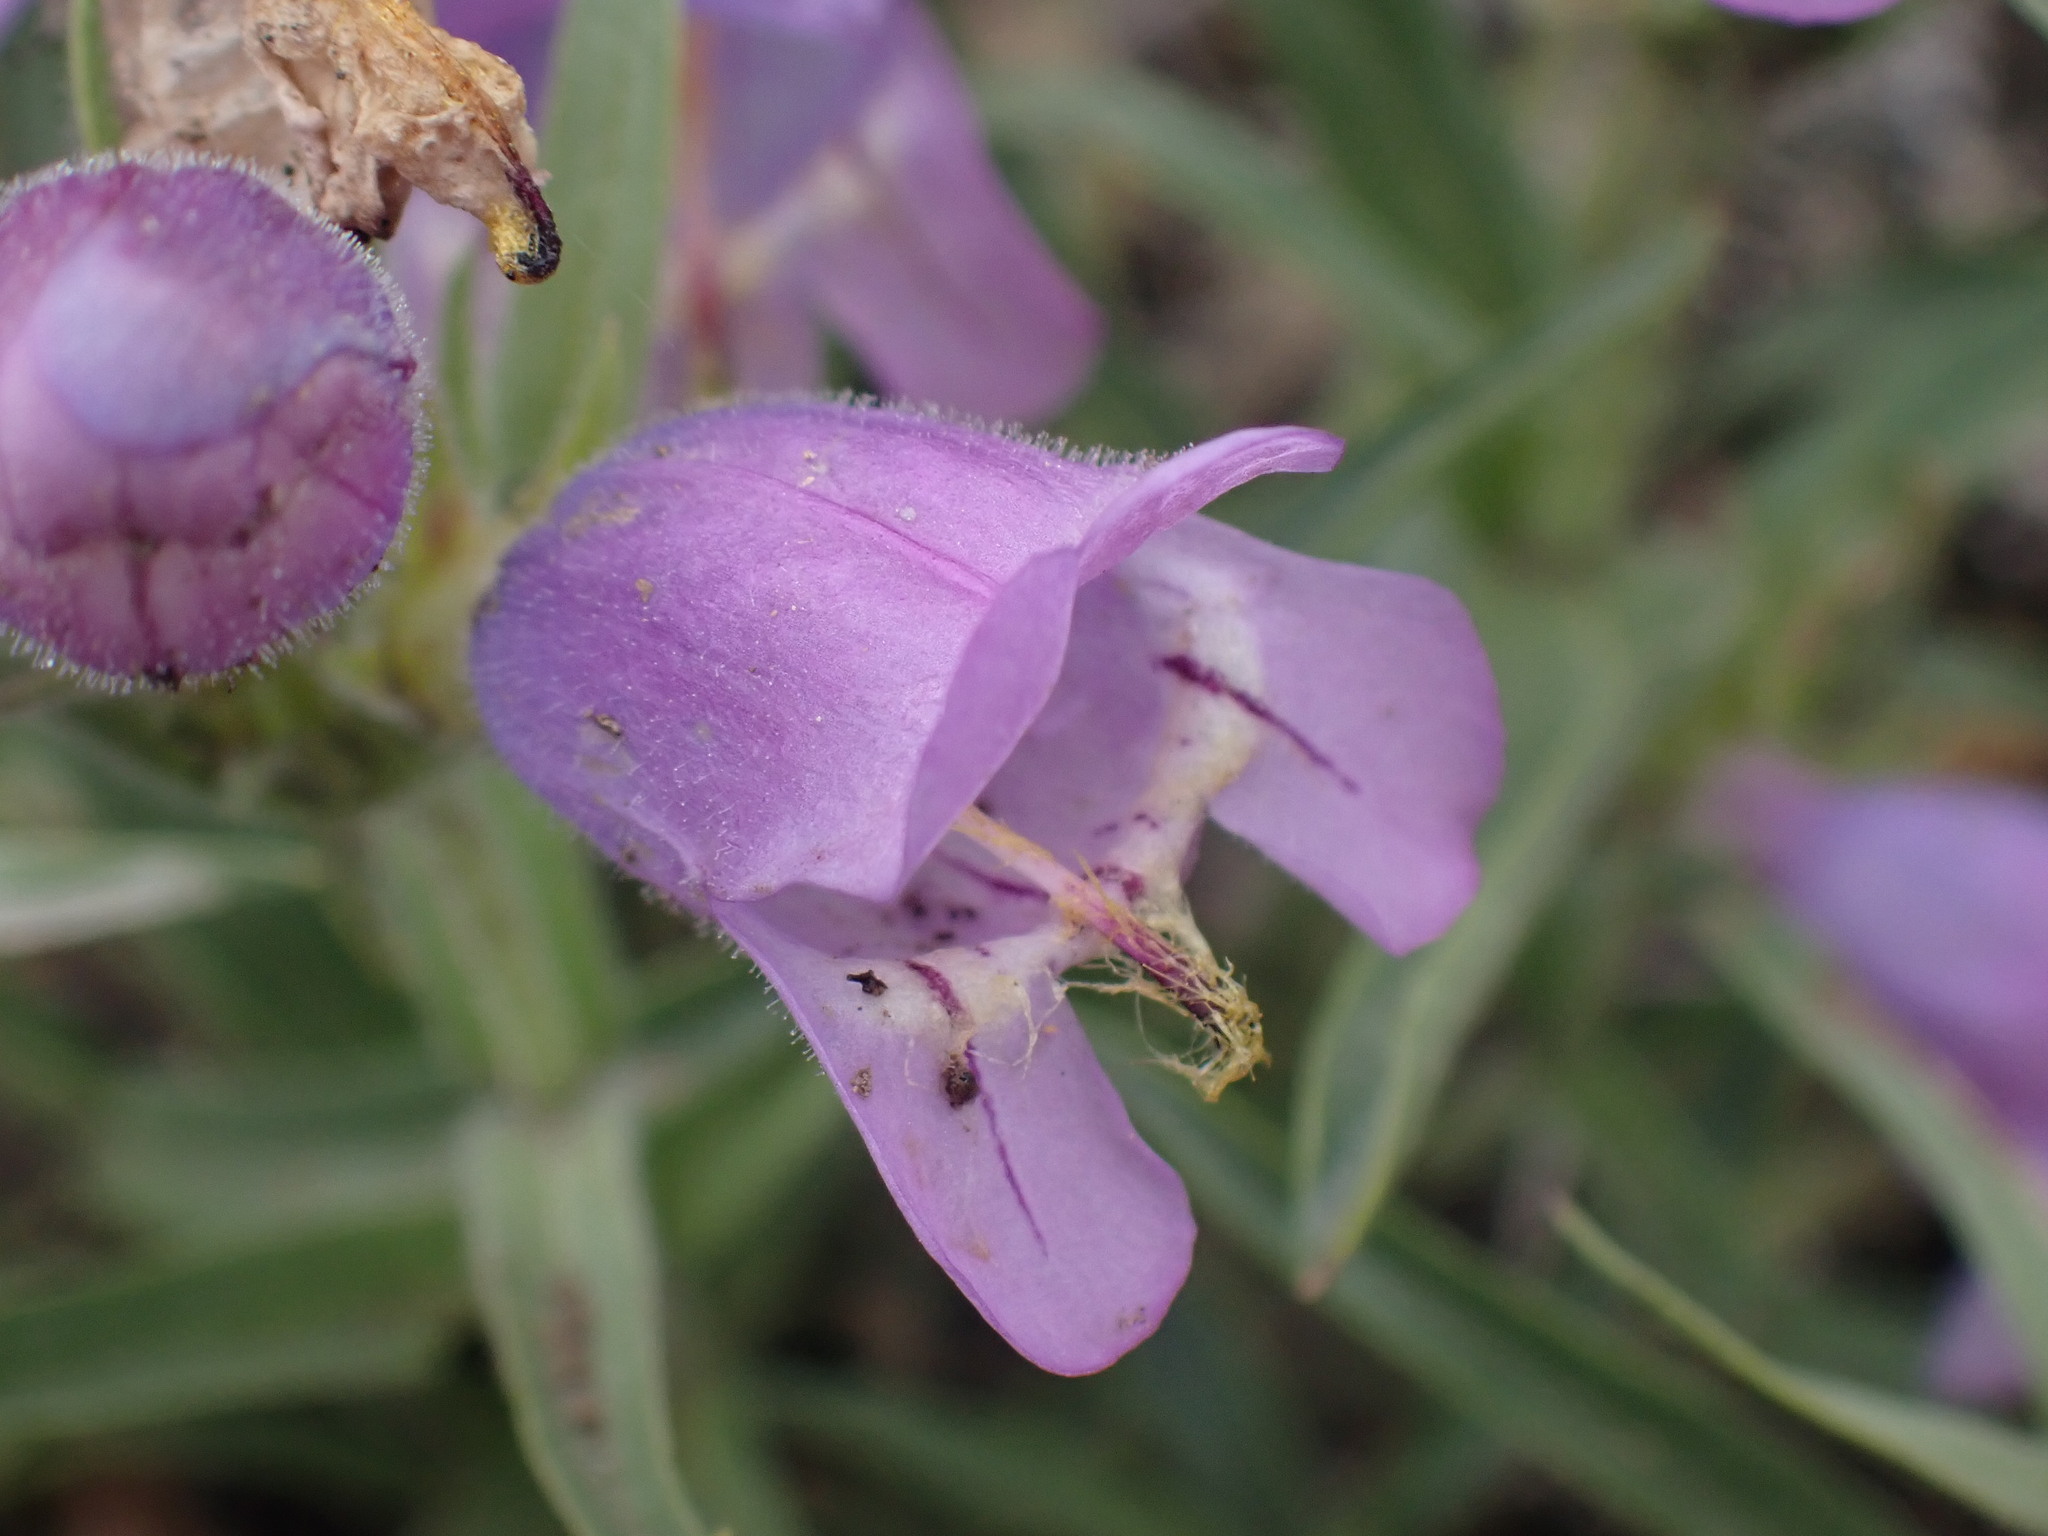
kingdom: Plantae
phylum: Tracheophyta
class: Magnoliopsida
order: Lamiales
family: Plantaginaceae
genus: Penstemon
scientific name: Penstemon eriantherus
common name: Crested beardtongue
